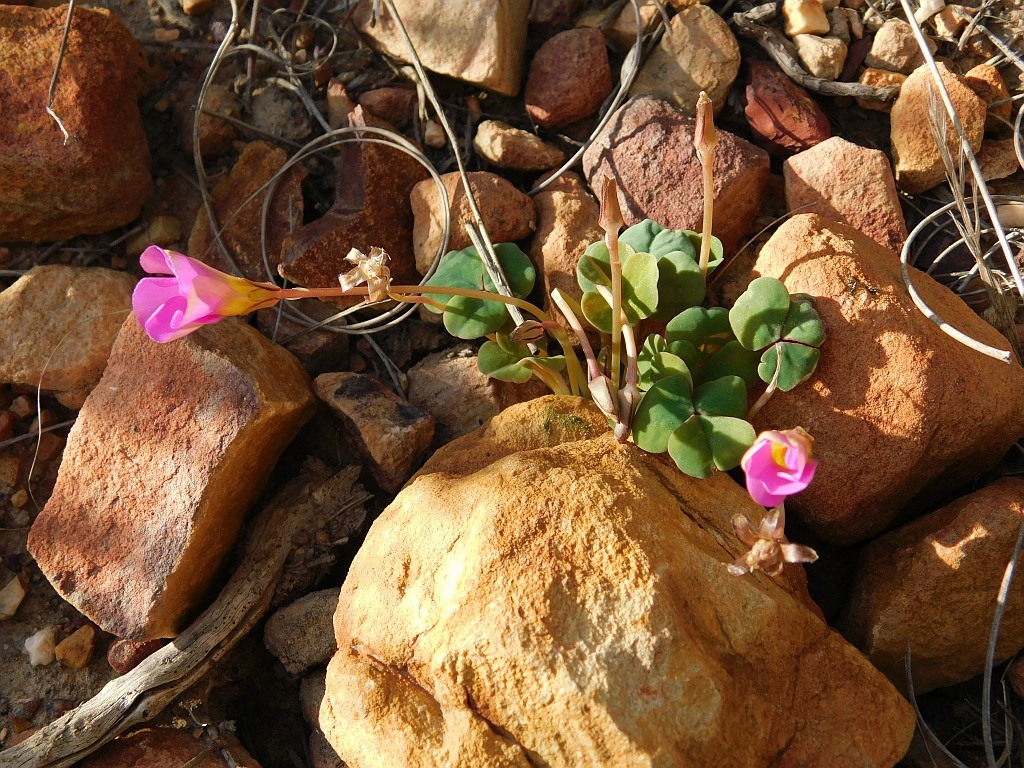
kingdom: Plantae
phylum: Tracheophyta
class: Magnoliopsida
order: Oxalidales
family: Oxalidaceae
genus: Oxalis
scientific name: Oxalis depressa
